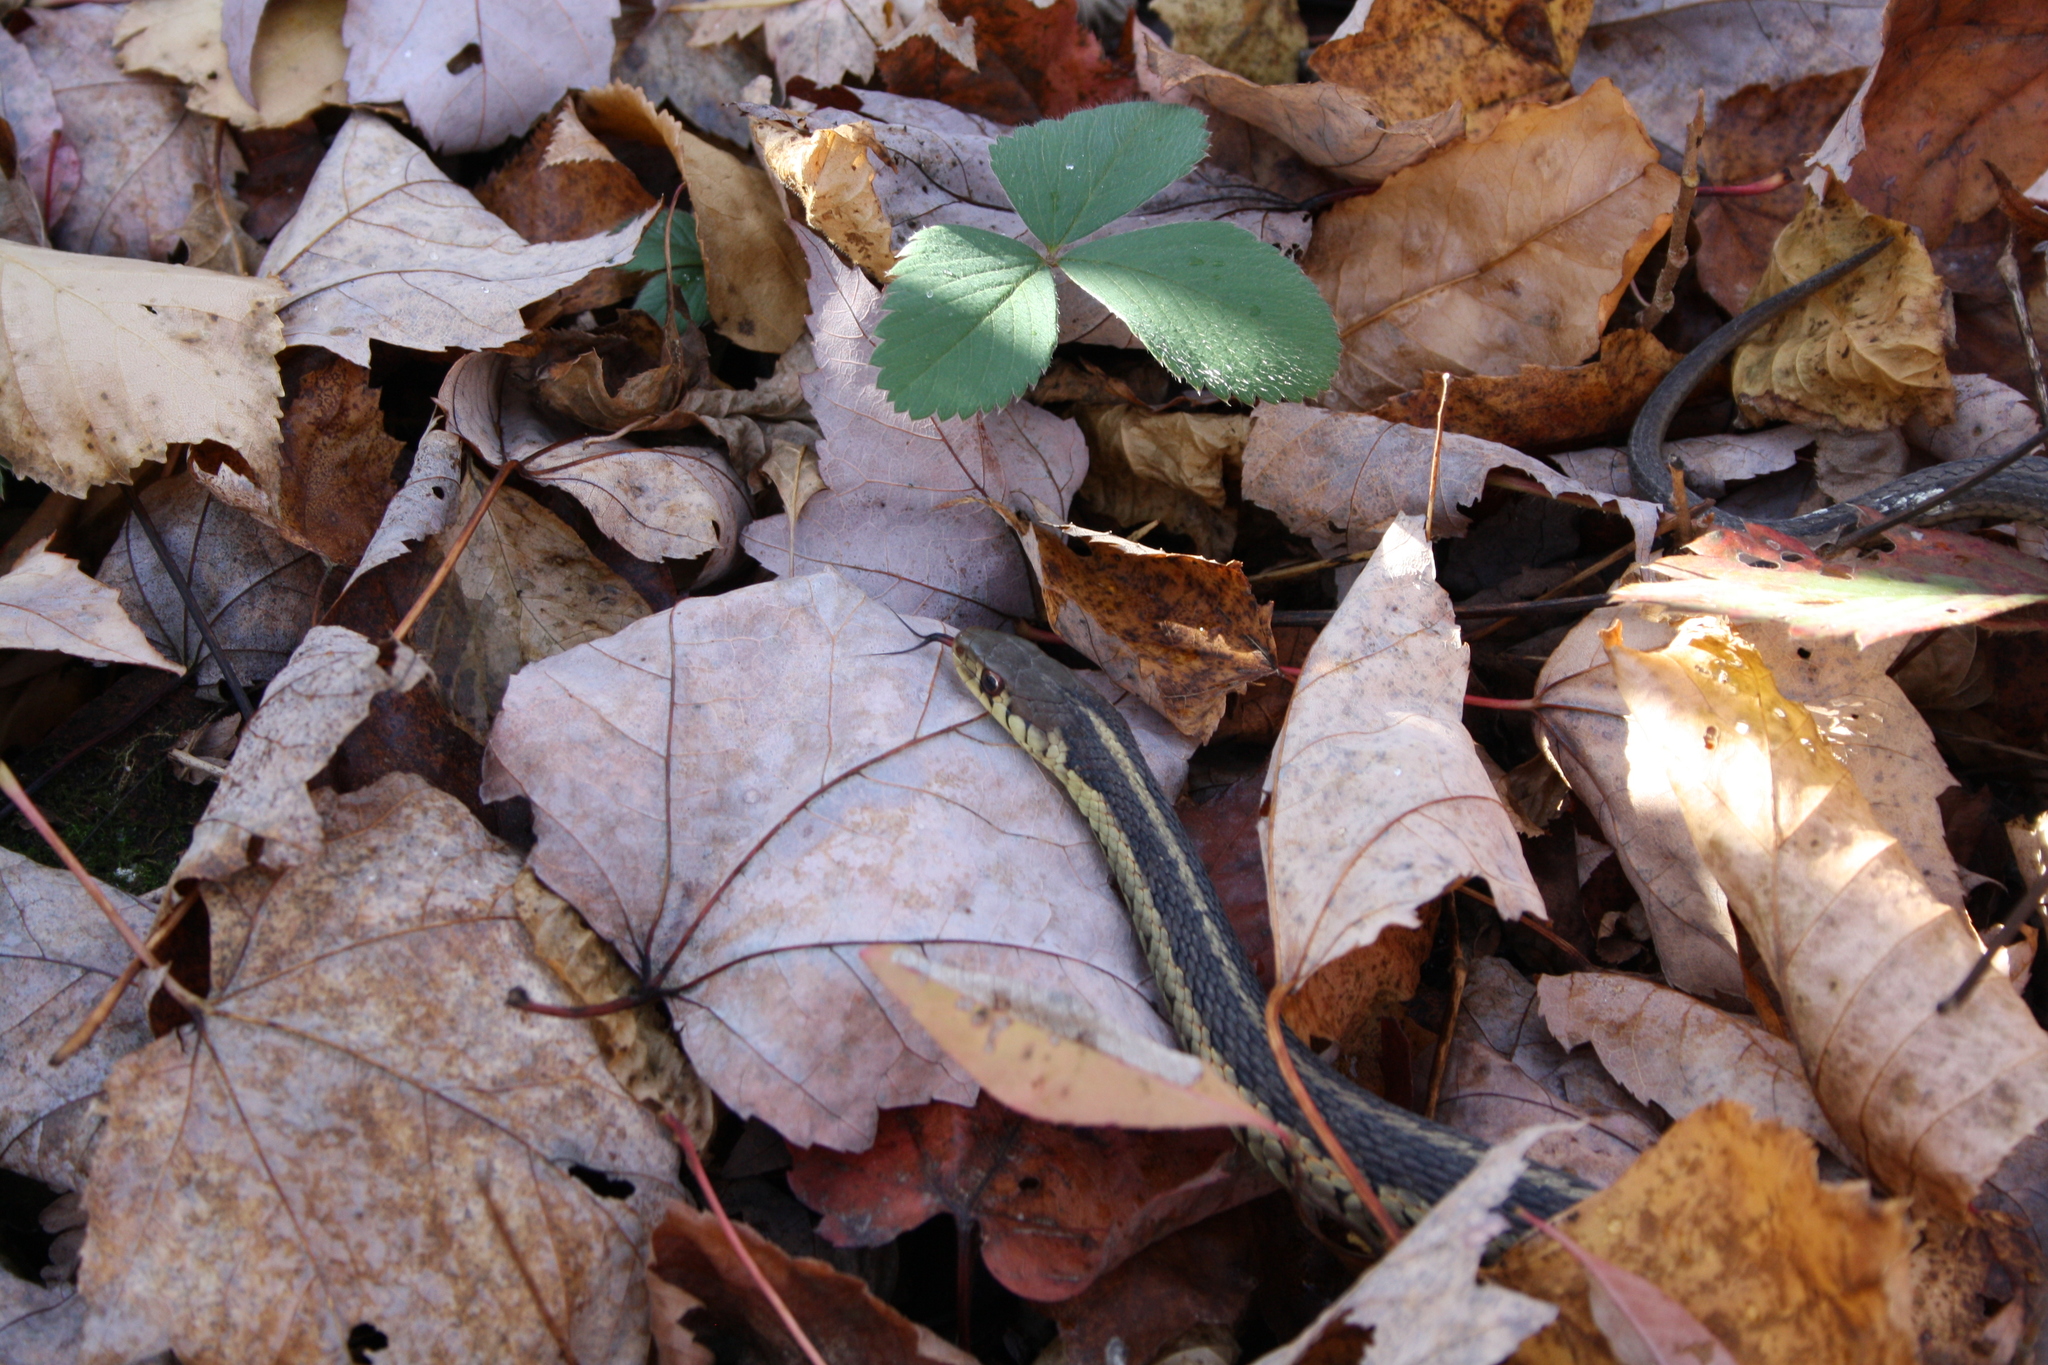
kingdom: Animalia
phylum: Chordata
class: Squamata
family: Colubridae
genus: Thamnophis
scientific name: Thamnophis sirtalis
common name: Common garter snake
